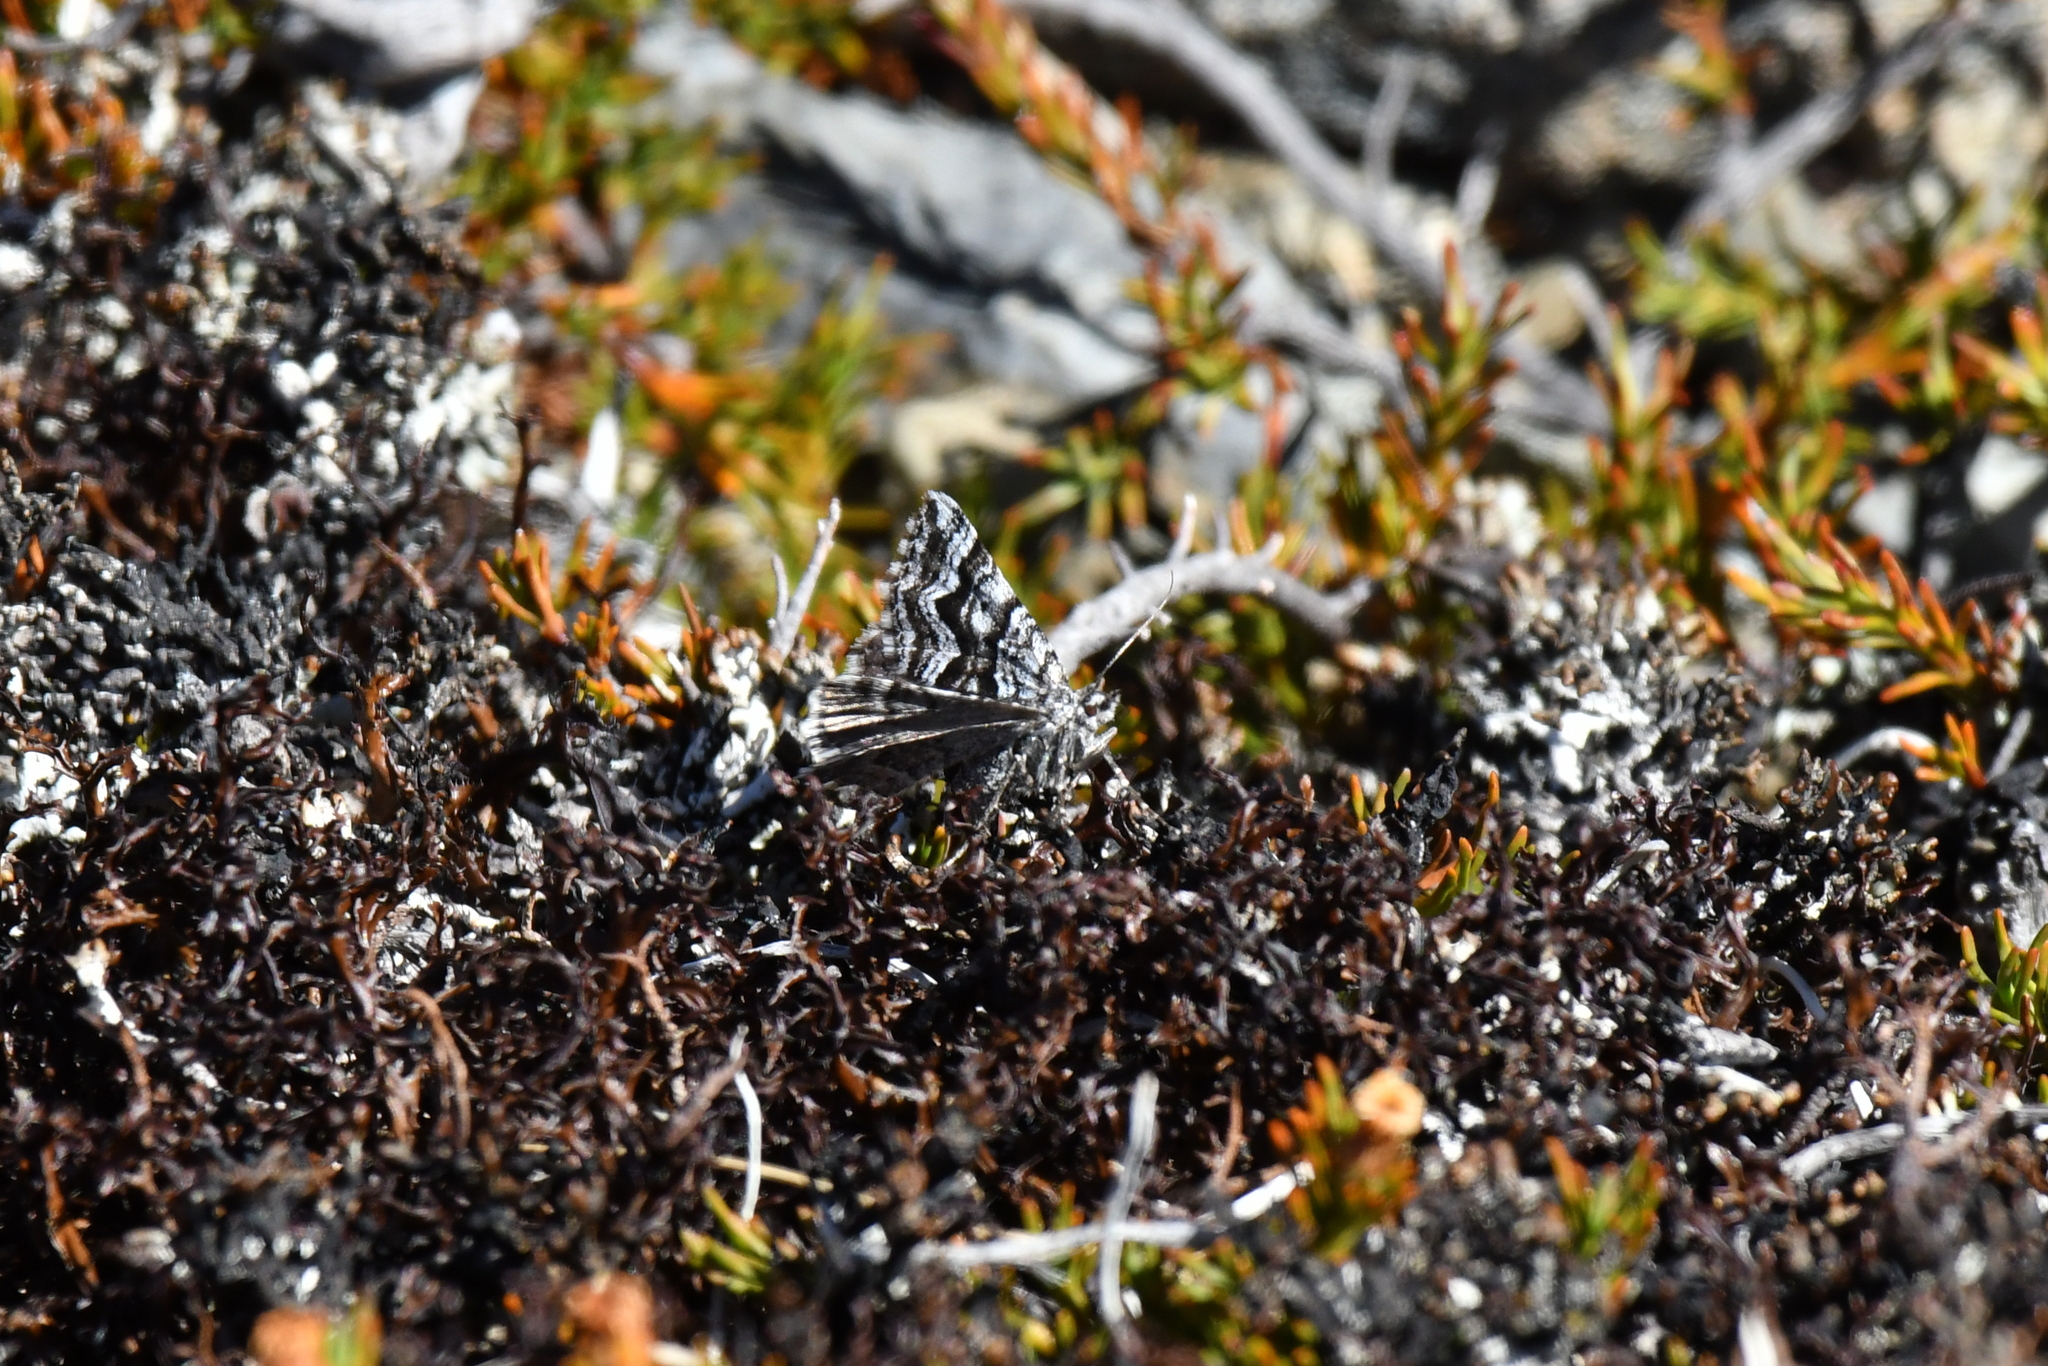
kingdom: Animalia
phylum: Arthropoda
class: Insecta
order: Lepidoptera
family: Geometridae
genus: Aponotoreas
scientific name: Aponotoreas anthracias
